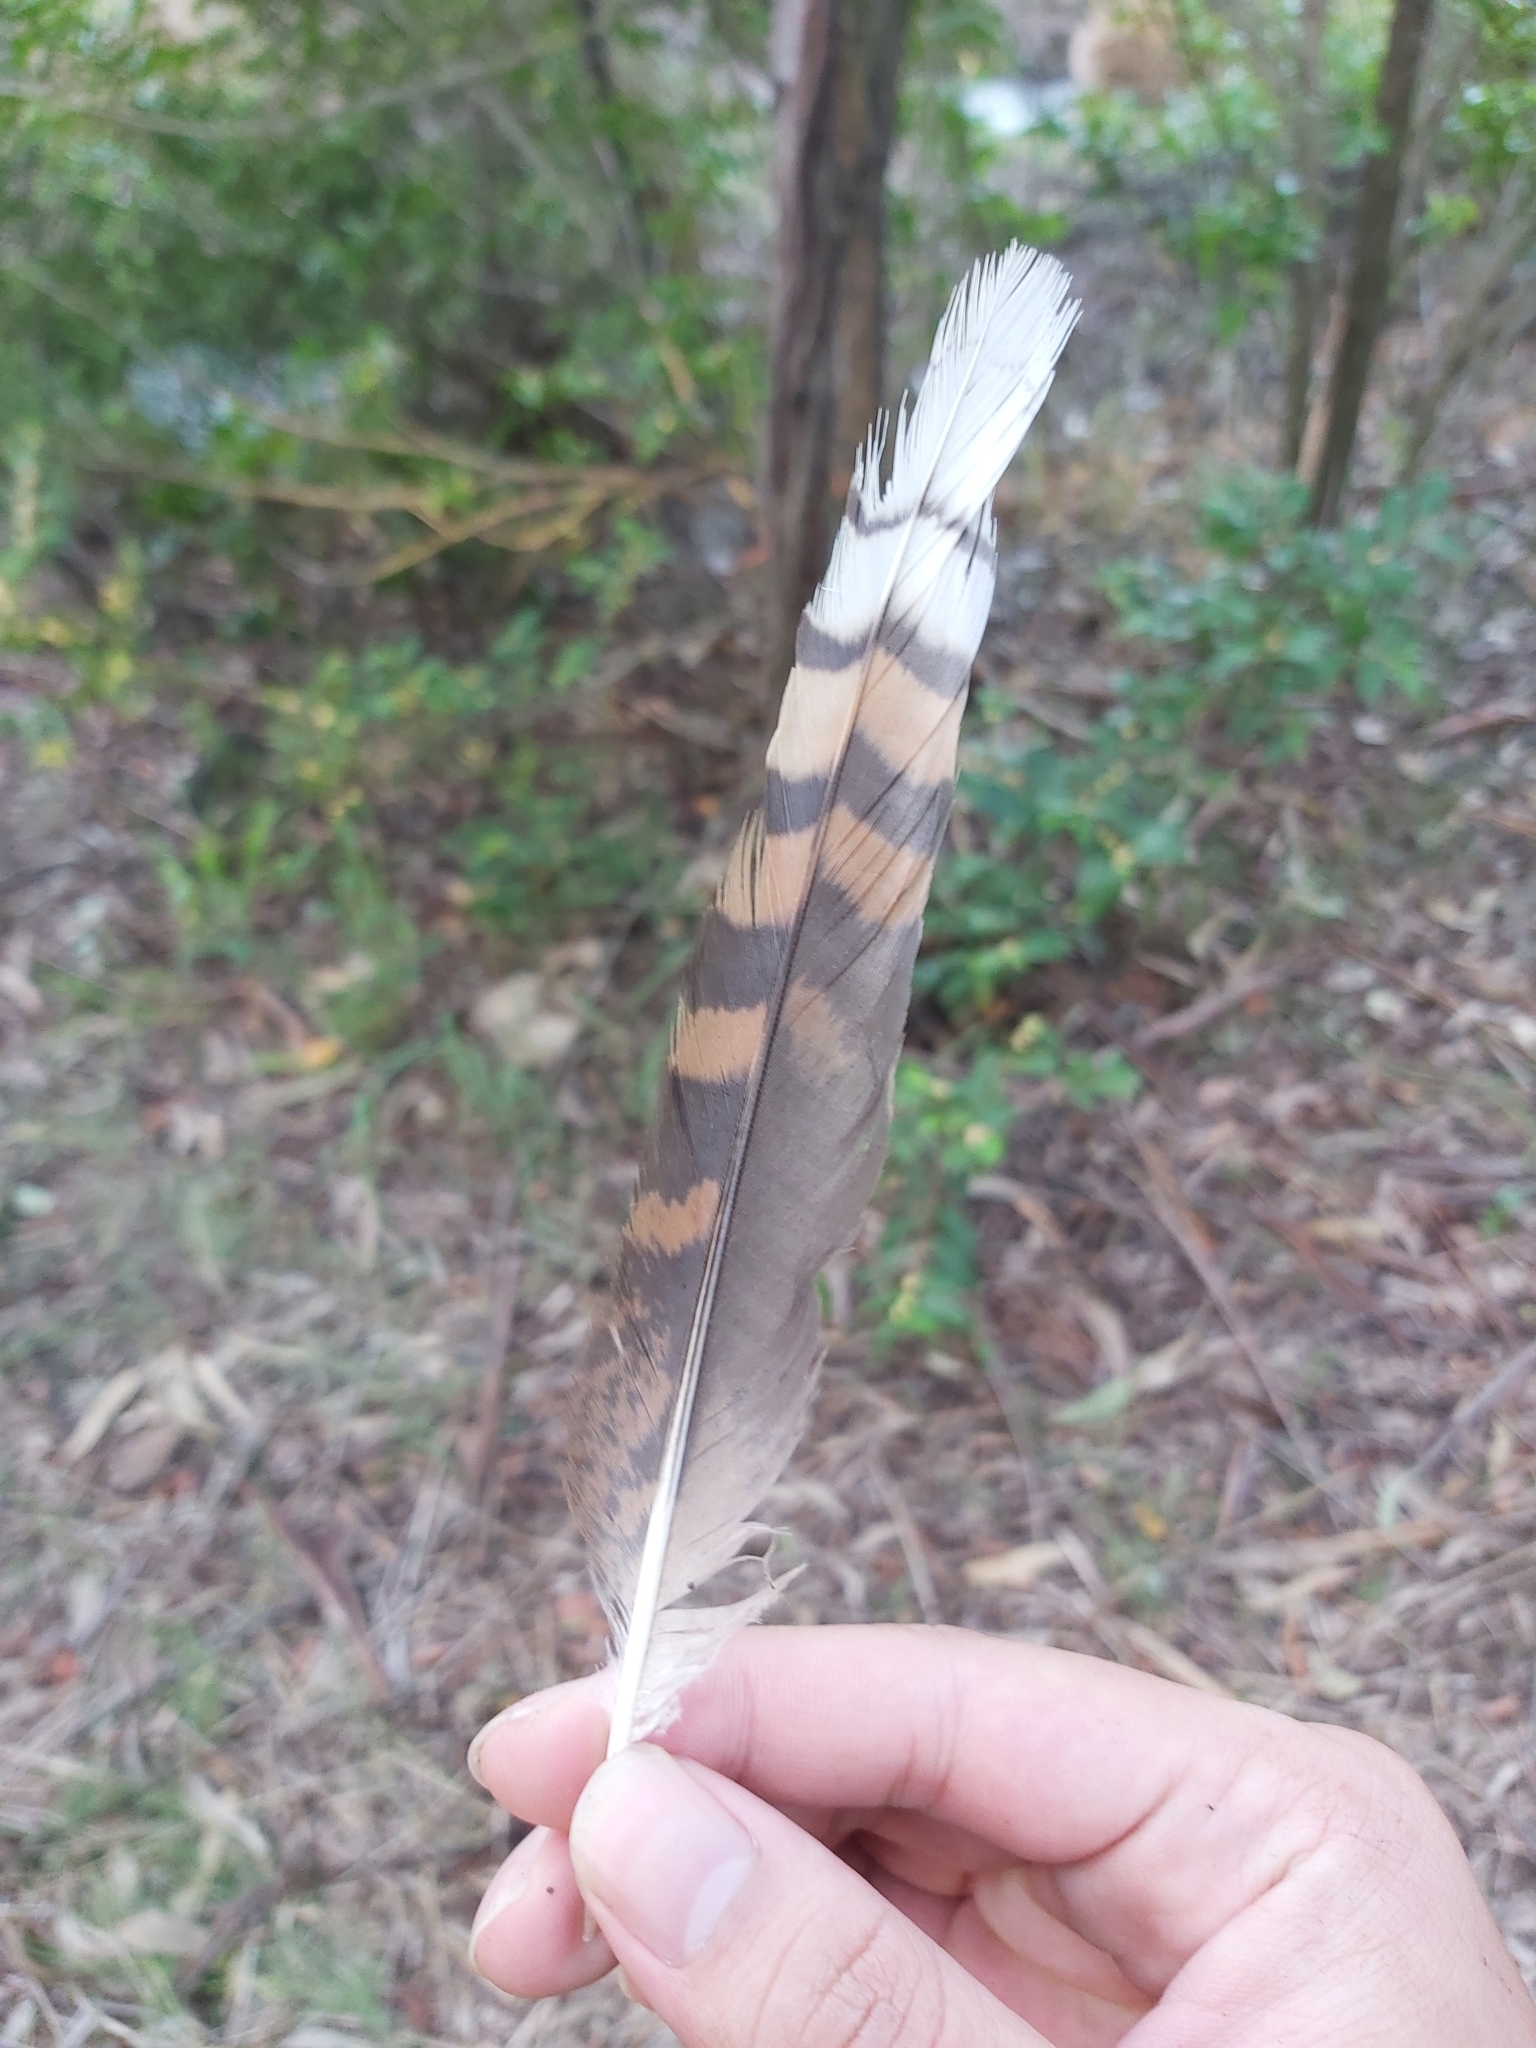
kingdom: Animalia
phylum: Chordata
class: Aves
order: Coraciiformes
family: Alcedinidae
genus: Dacelo
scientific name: Dacelo novaeguineae
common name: Laughing kookaburra
